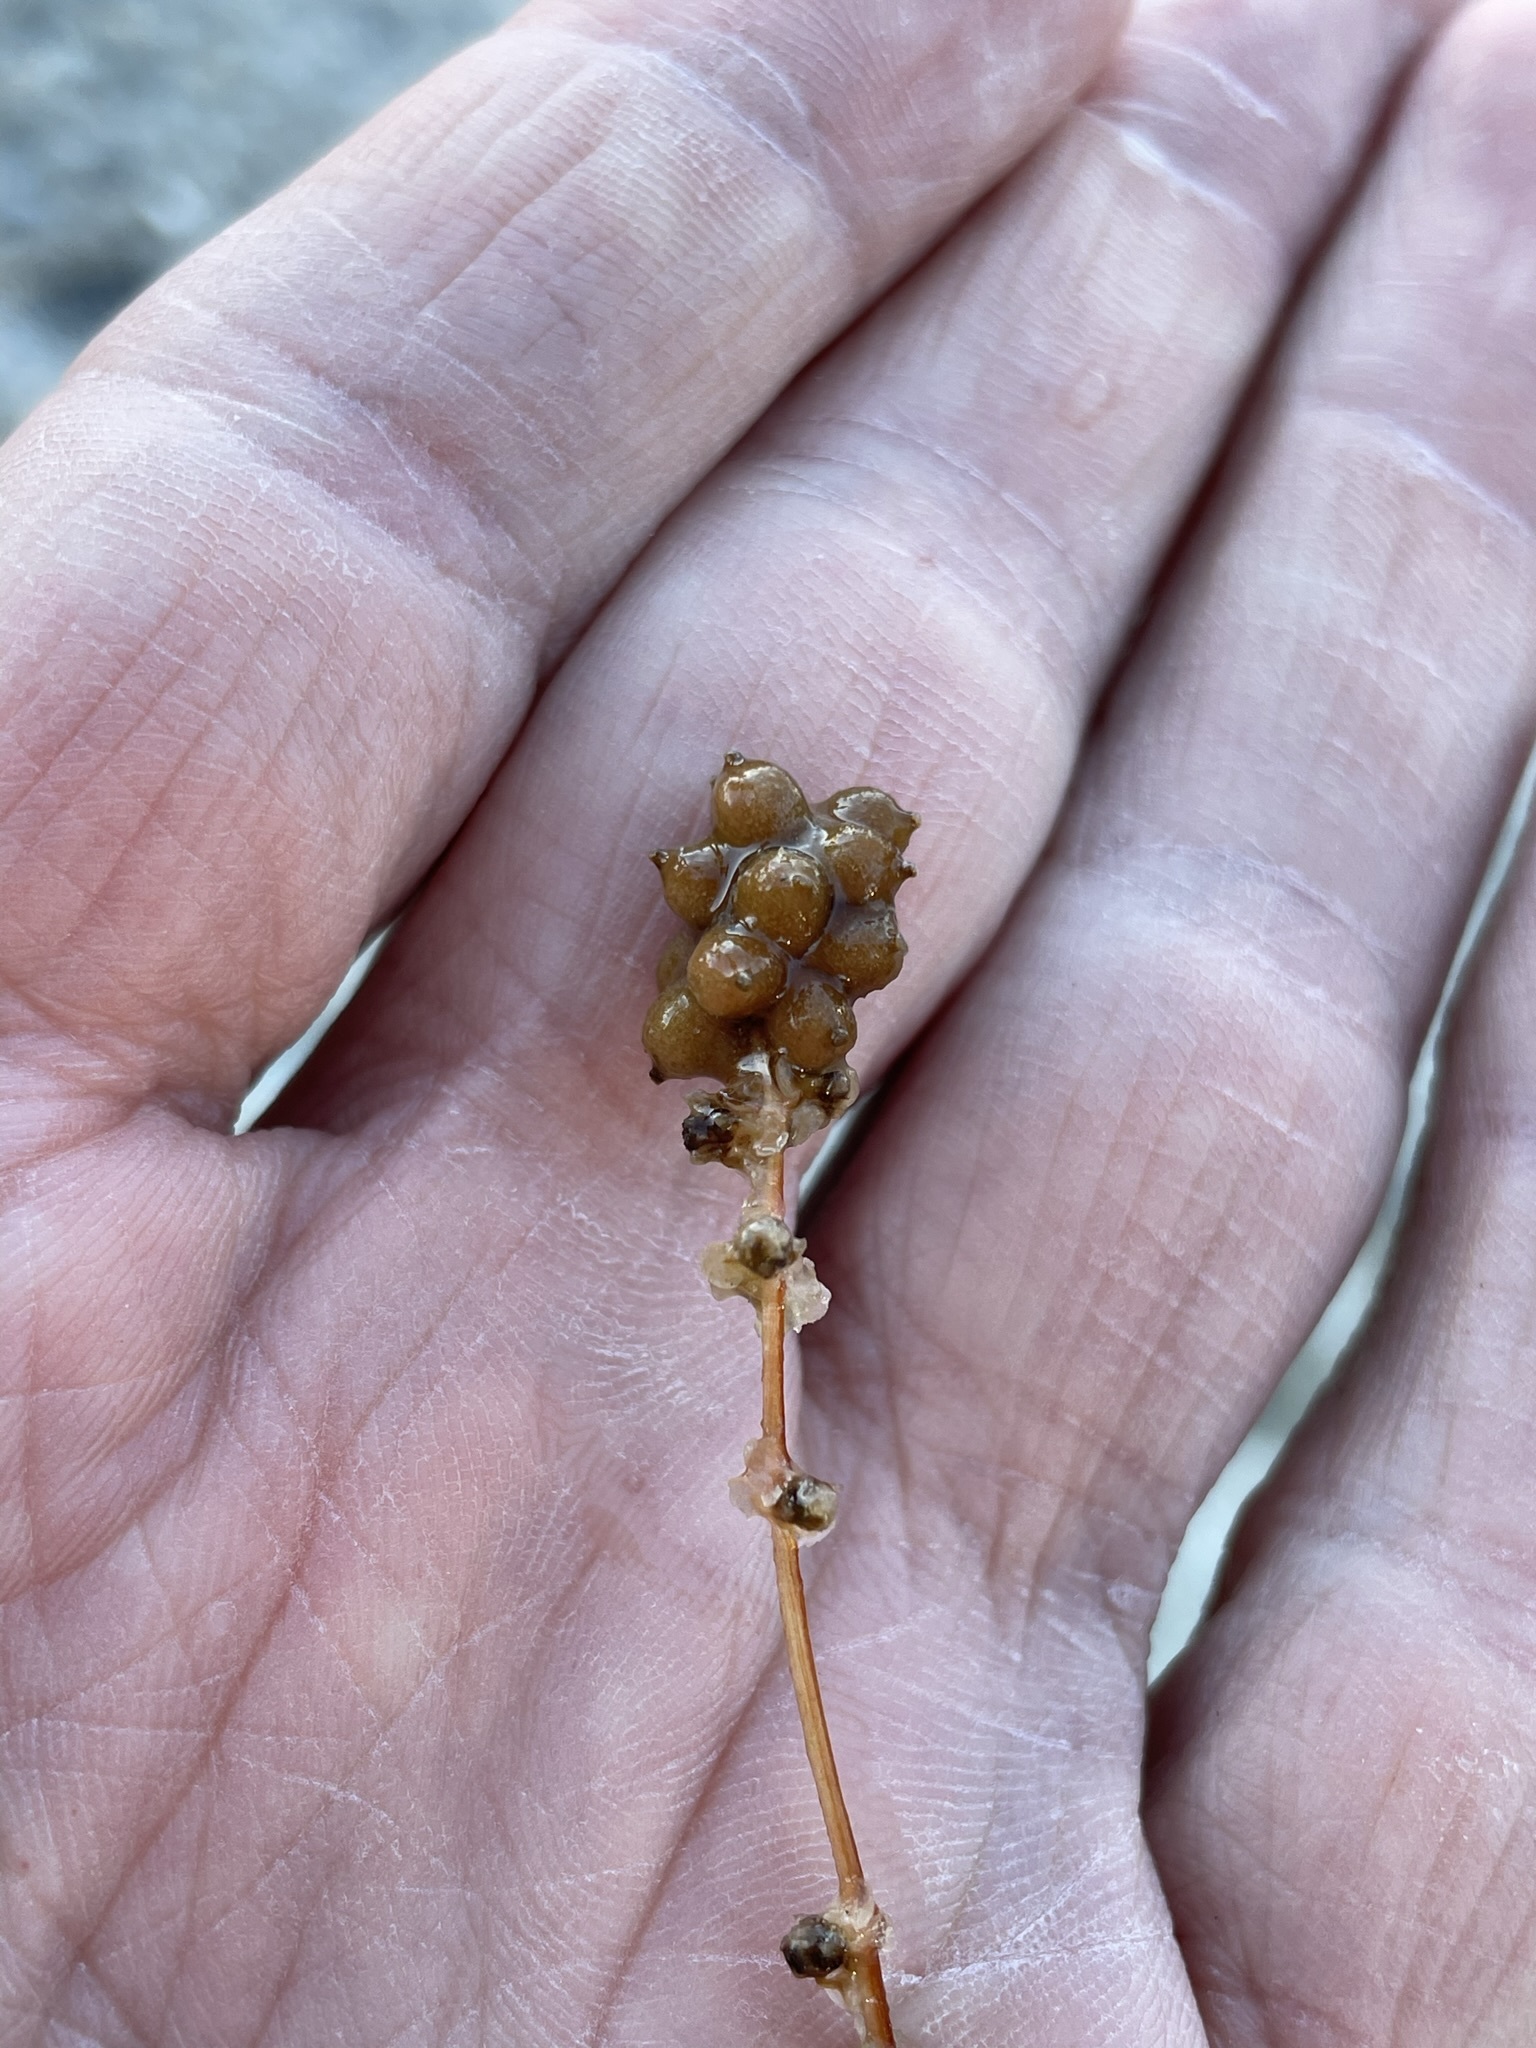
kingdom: Plantae
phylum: Tracheophyta
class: Liliopsida
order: Alismatales
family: Potamogetonaceae
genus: Stuckenia
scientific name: Stuckenia pectinata
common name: Sago pondweed
